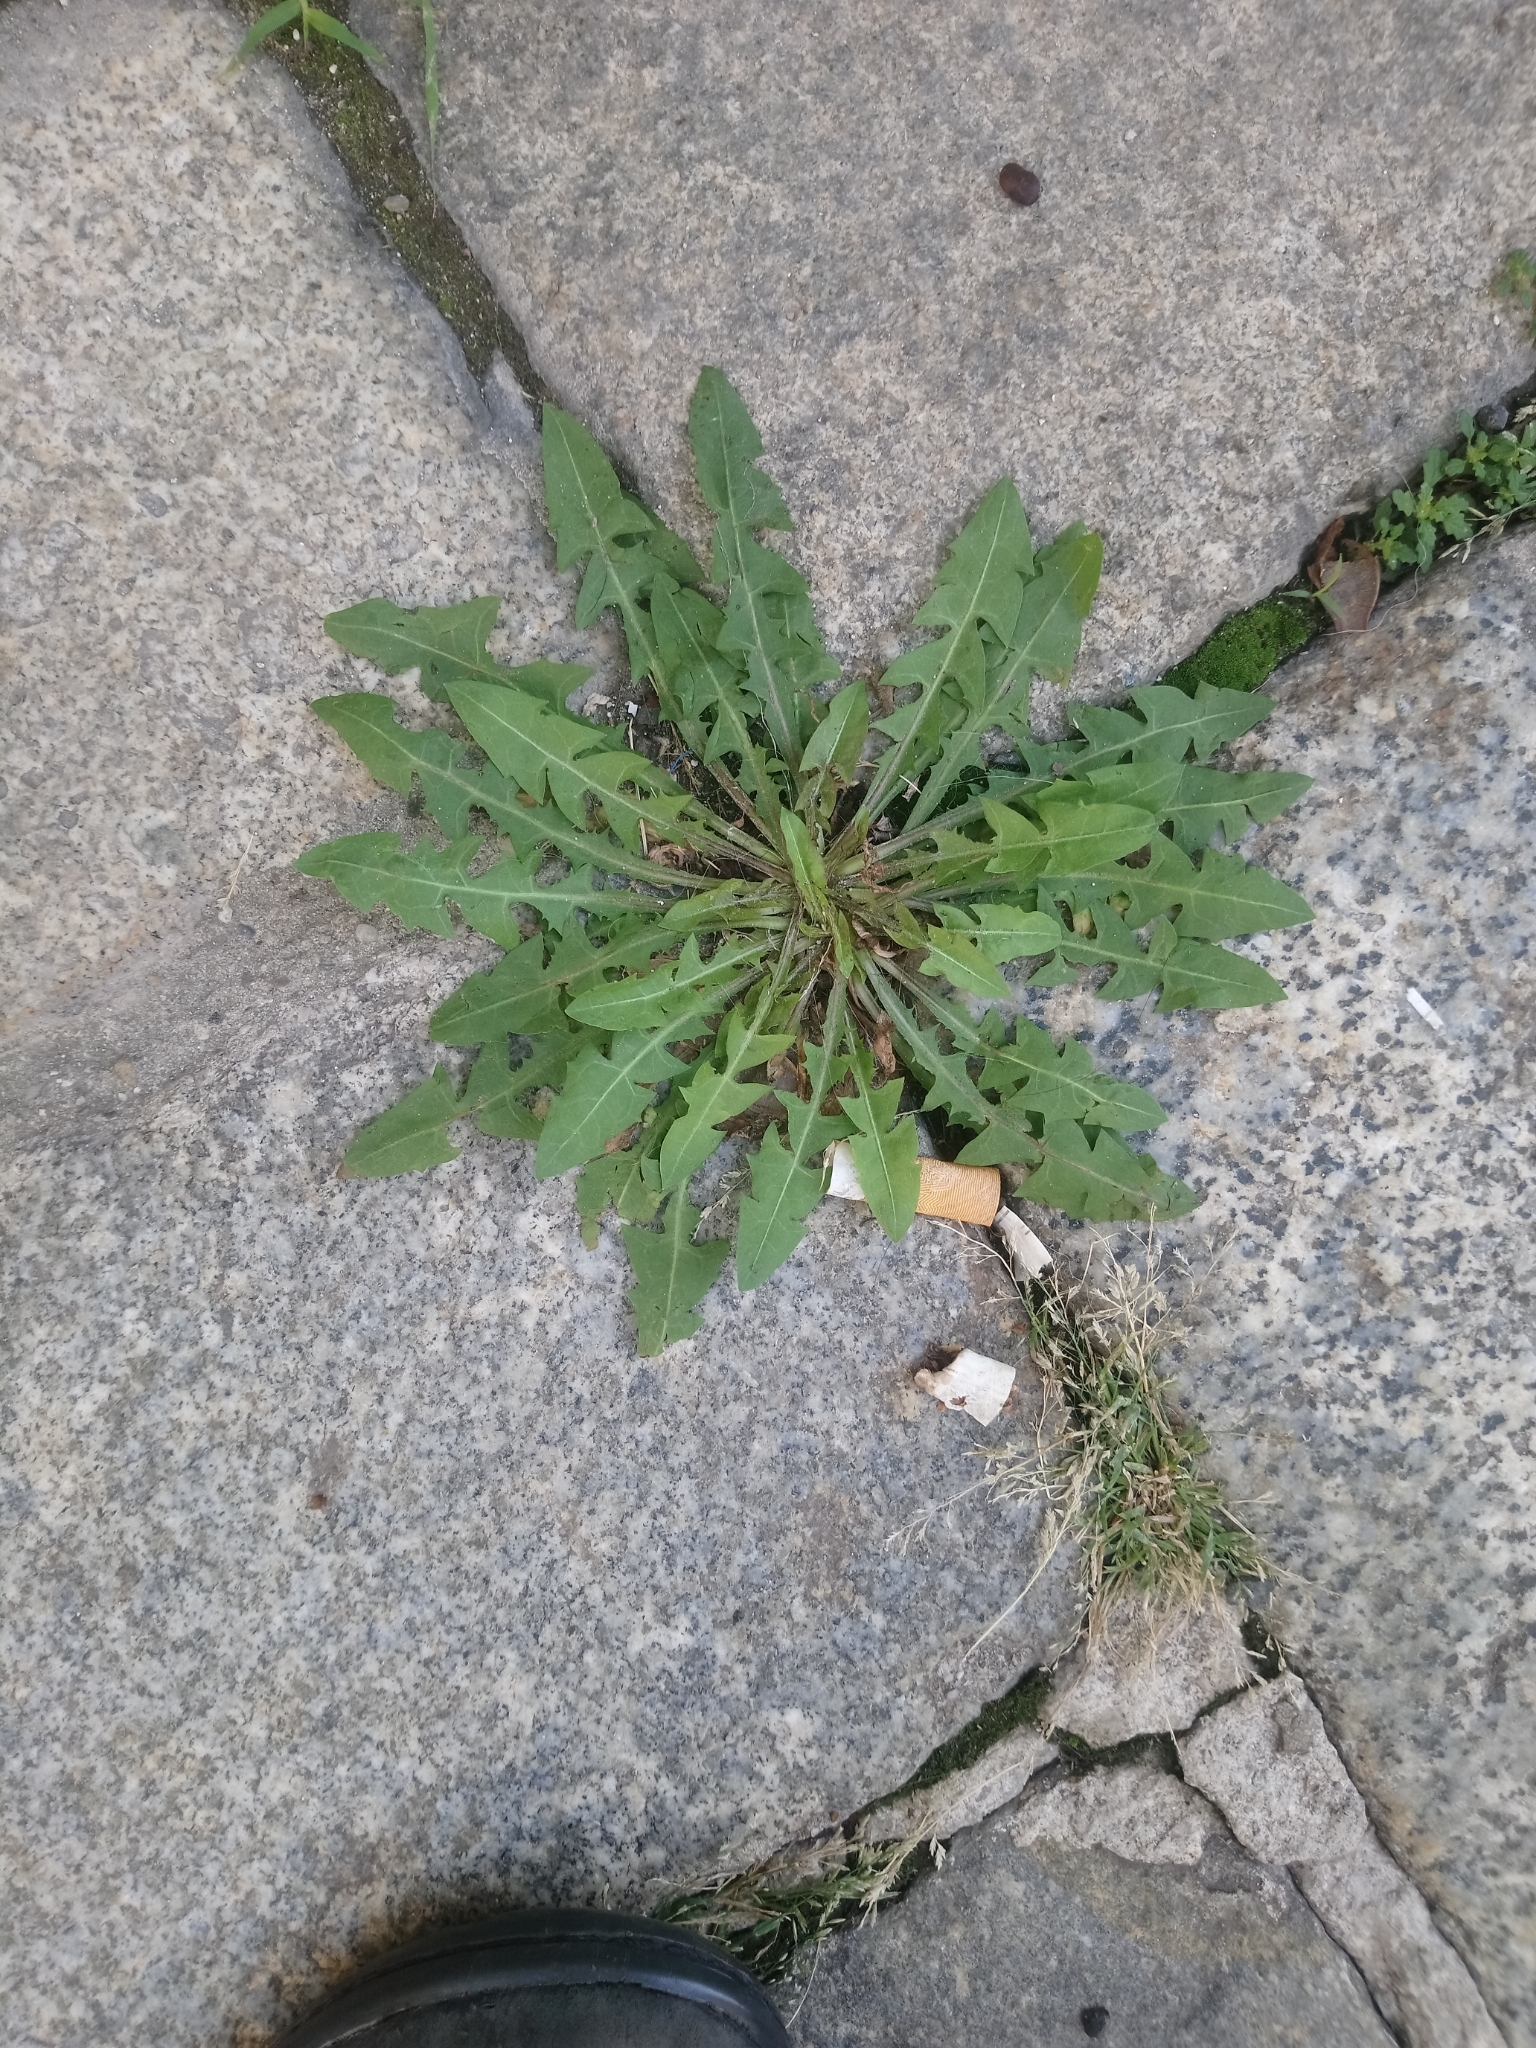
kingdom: Plantae
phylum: Tracheophyta
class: Magnoliopsida
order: Asterales
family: Asteraceae
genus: Taraxacum
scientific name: Taraxacum
